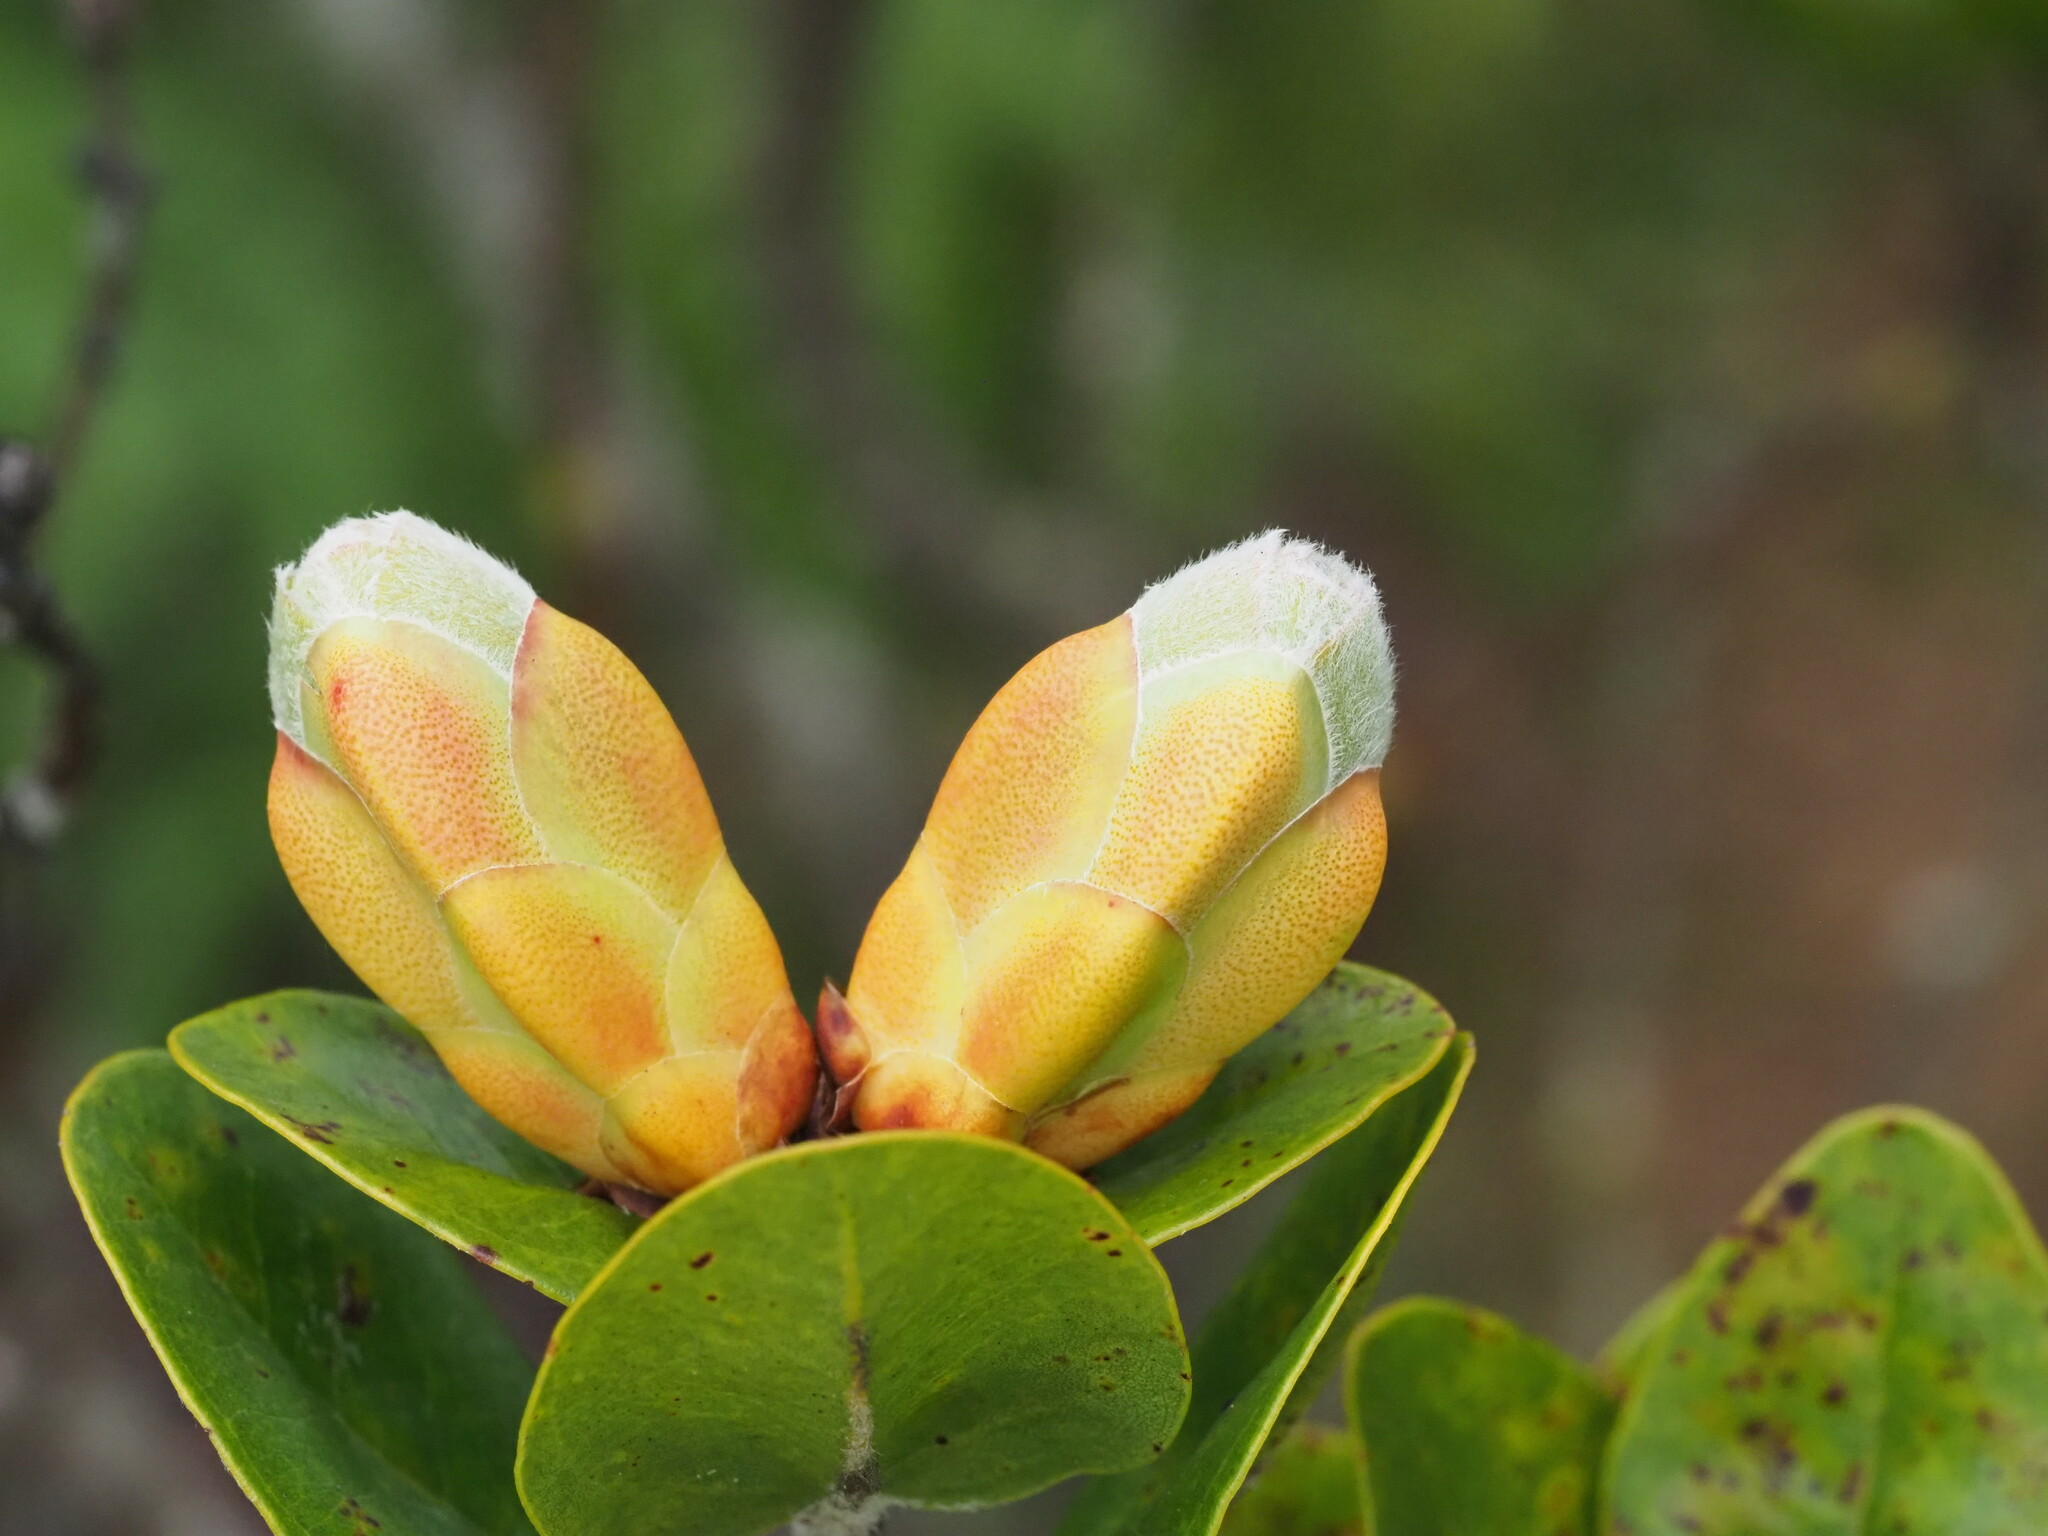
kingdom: Plantae
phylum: Tracheophyta
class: Magnoliopsida
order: Myrtales
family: Myrtaceae
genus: Metrosideros
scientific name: Metrosideros polymorpha
